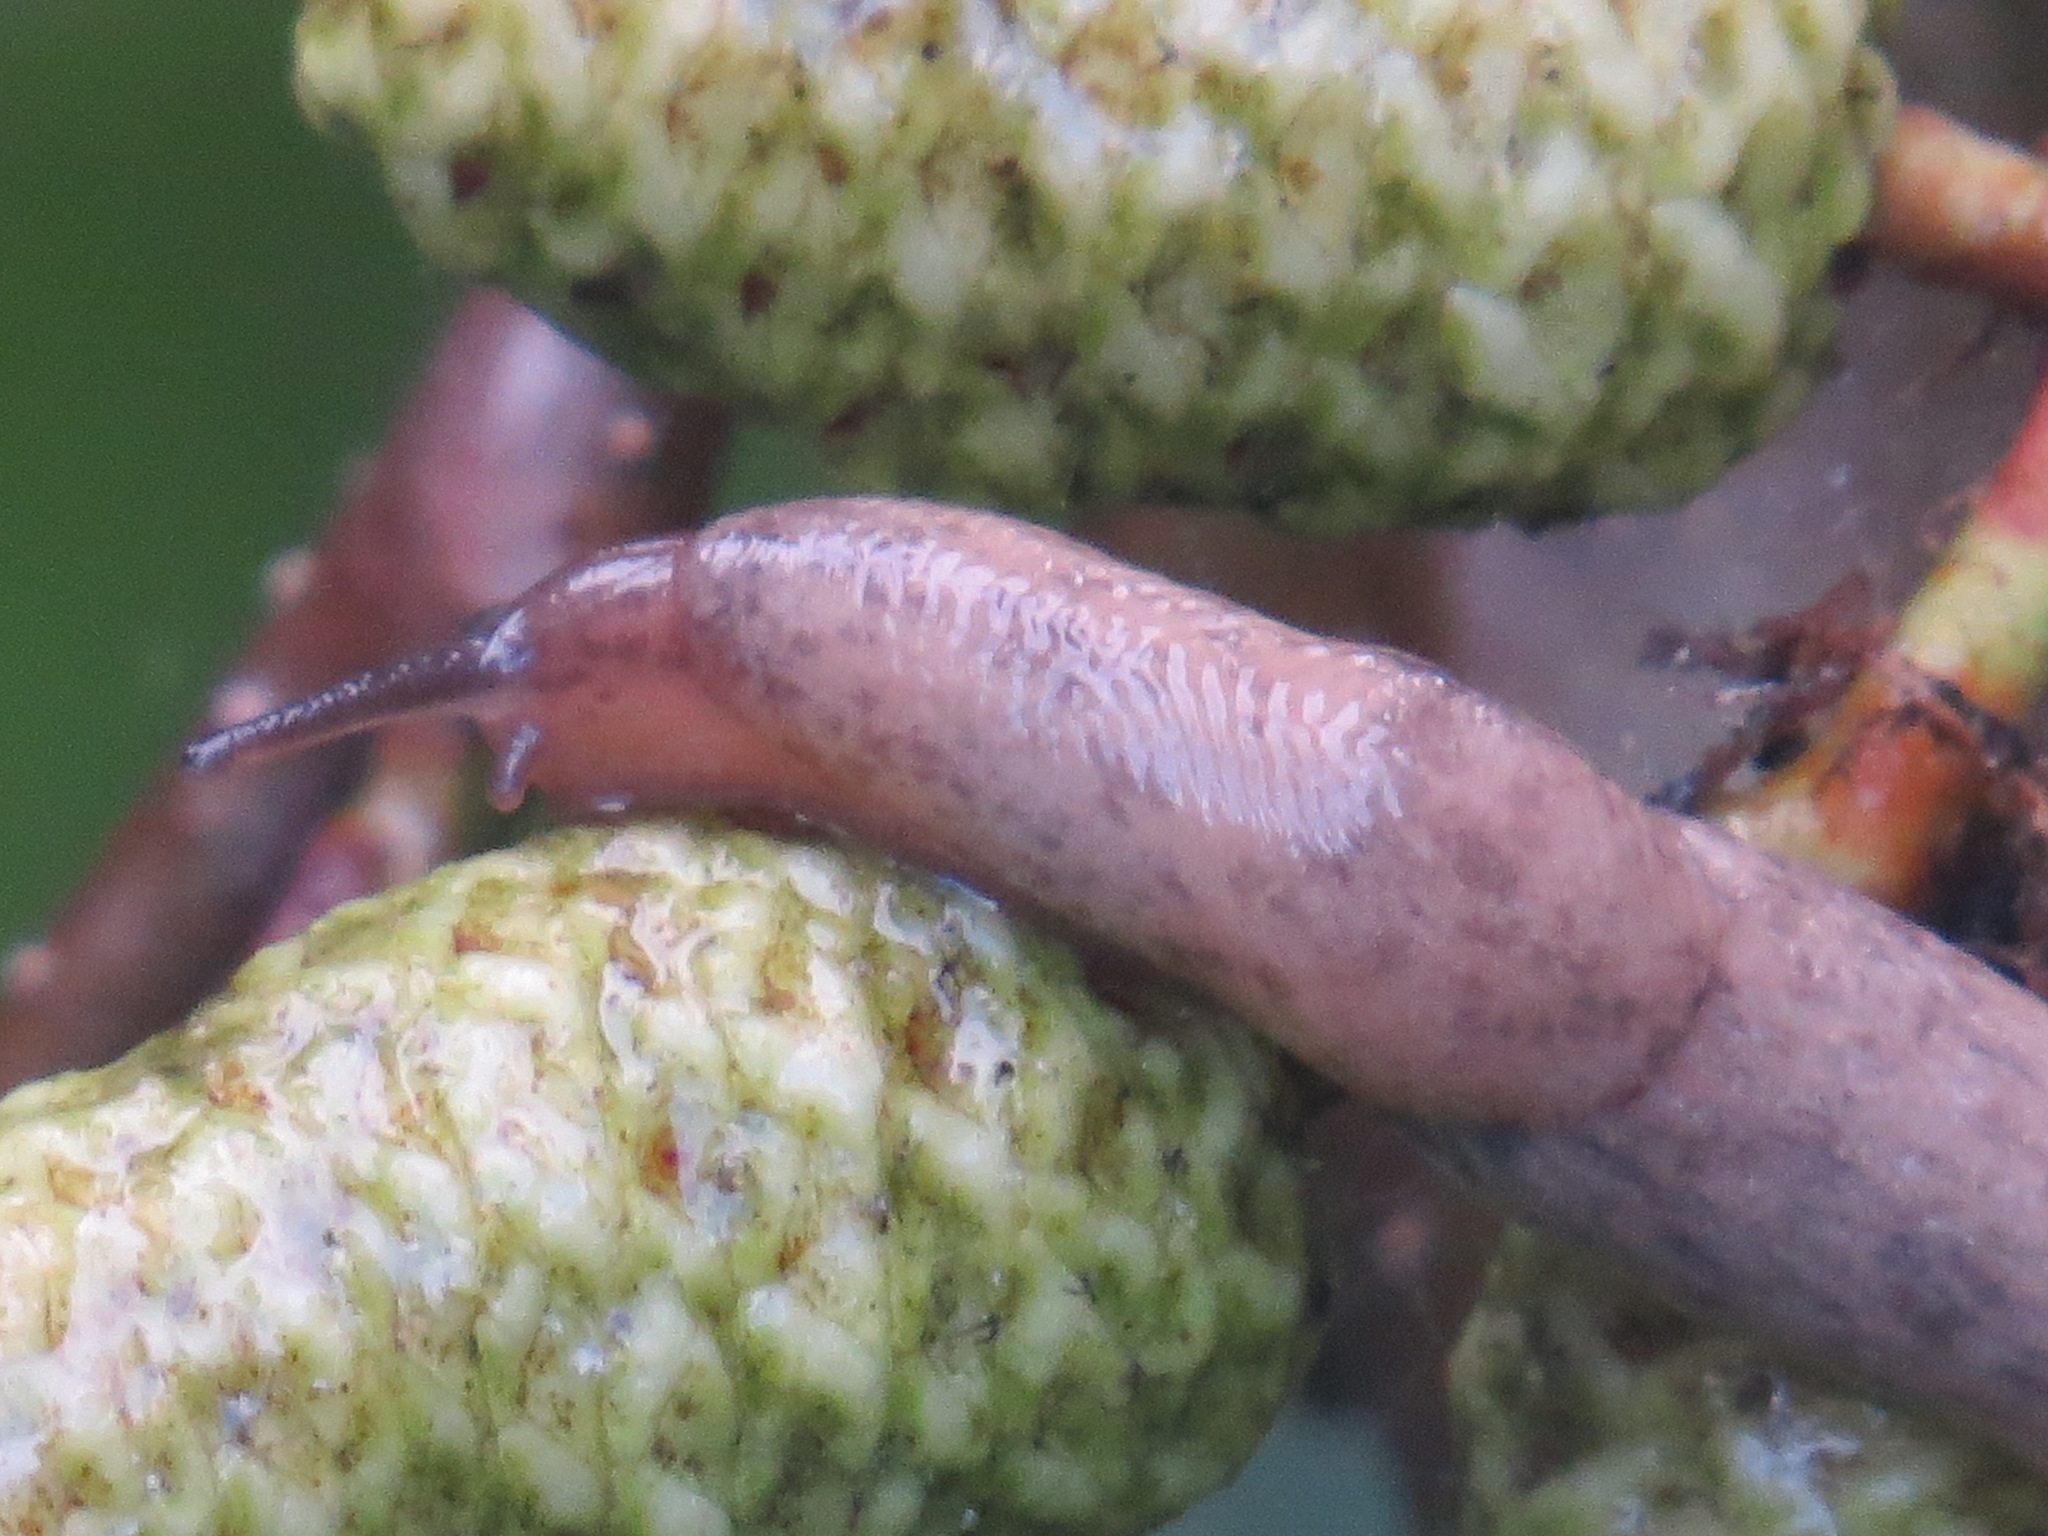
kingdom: Animalia
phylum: Mollusca
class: Gastropoda
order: Stylommatophora
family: Agriolimacidae
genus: Deroceras
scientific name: Deroceras reticulatum
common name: Gray field slug
